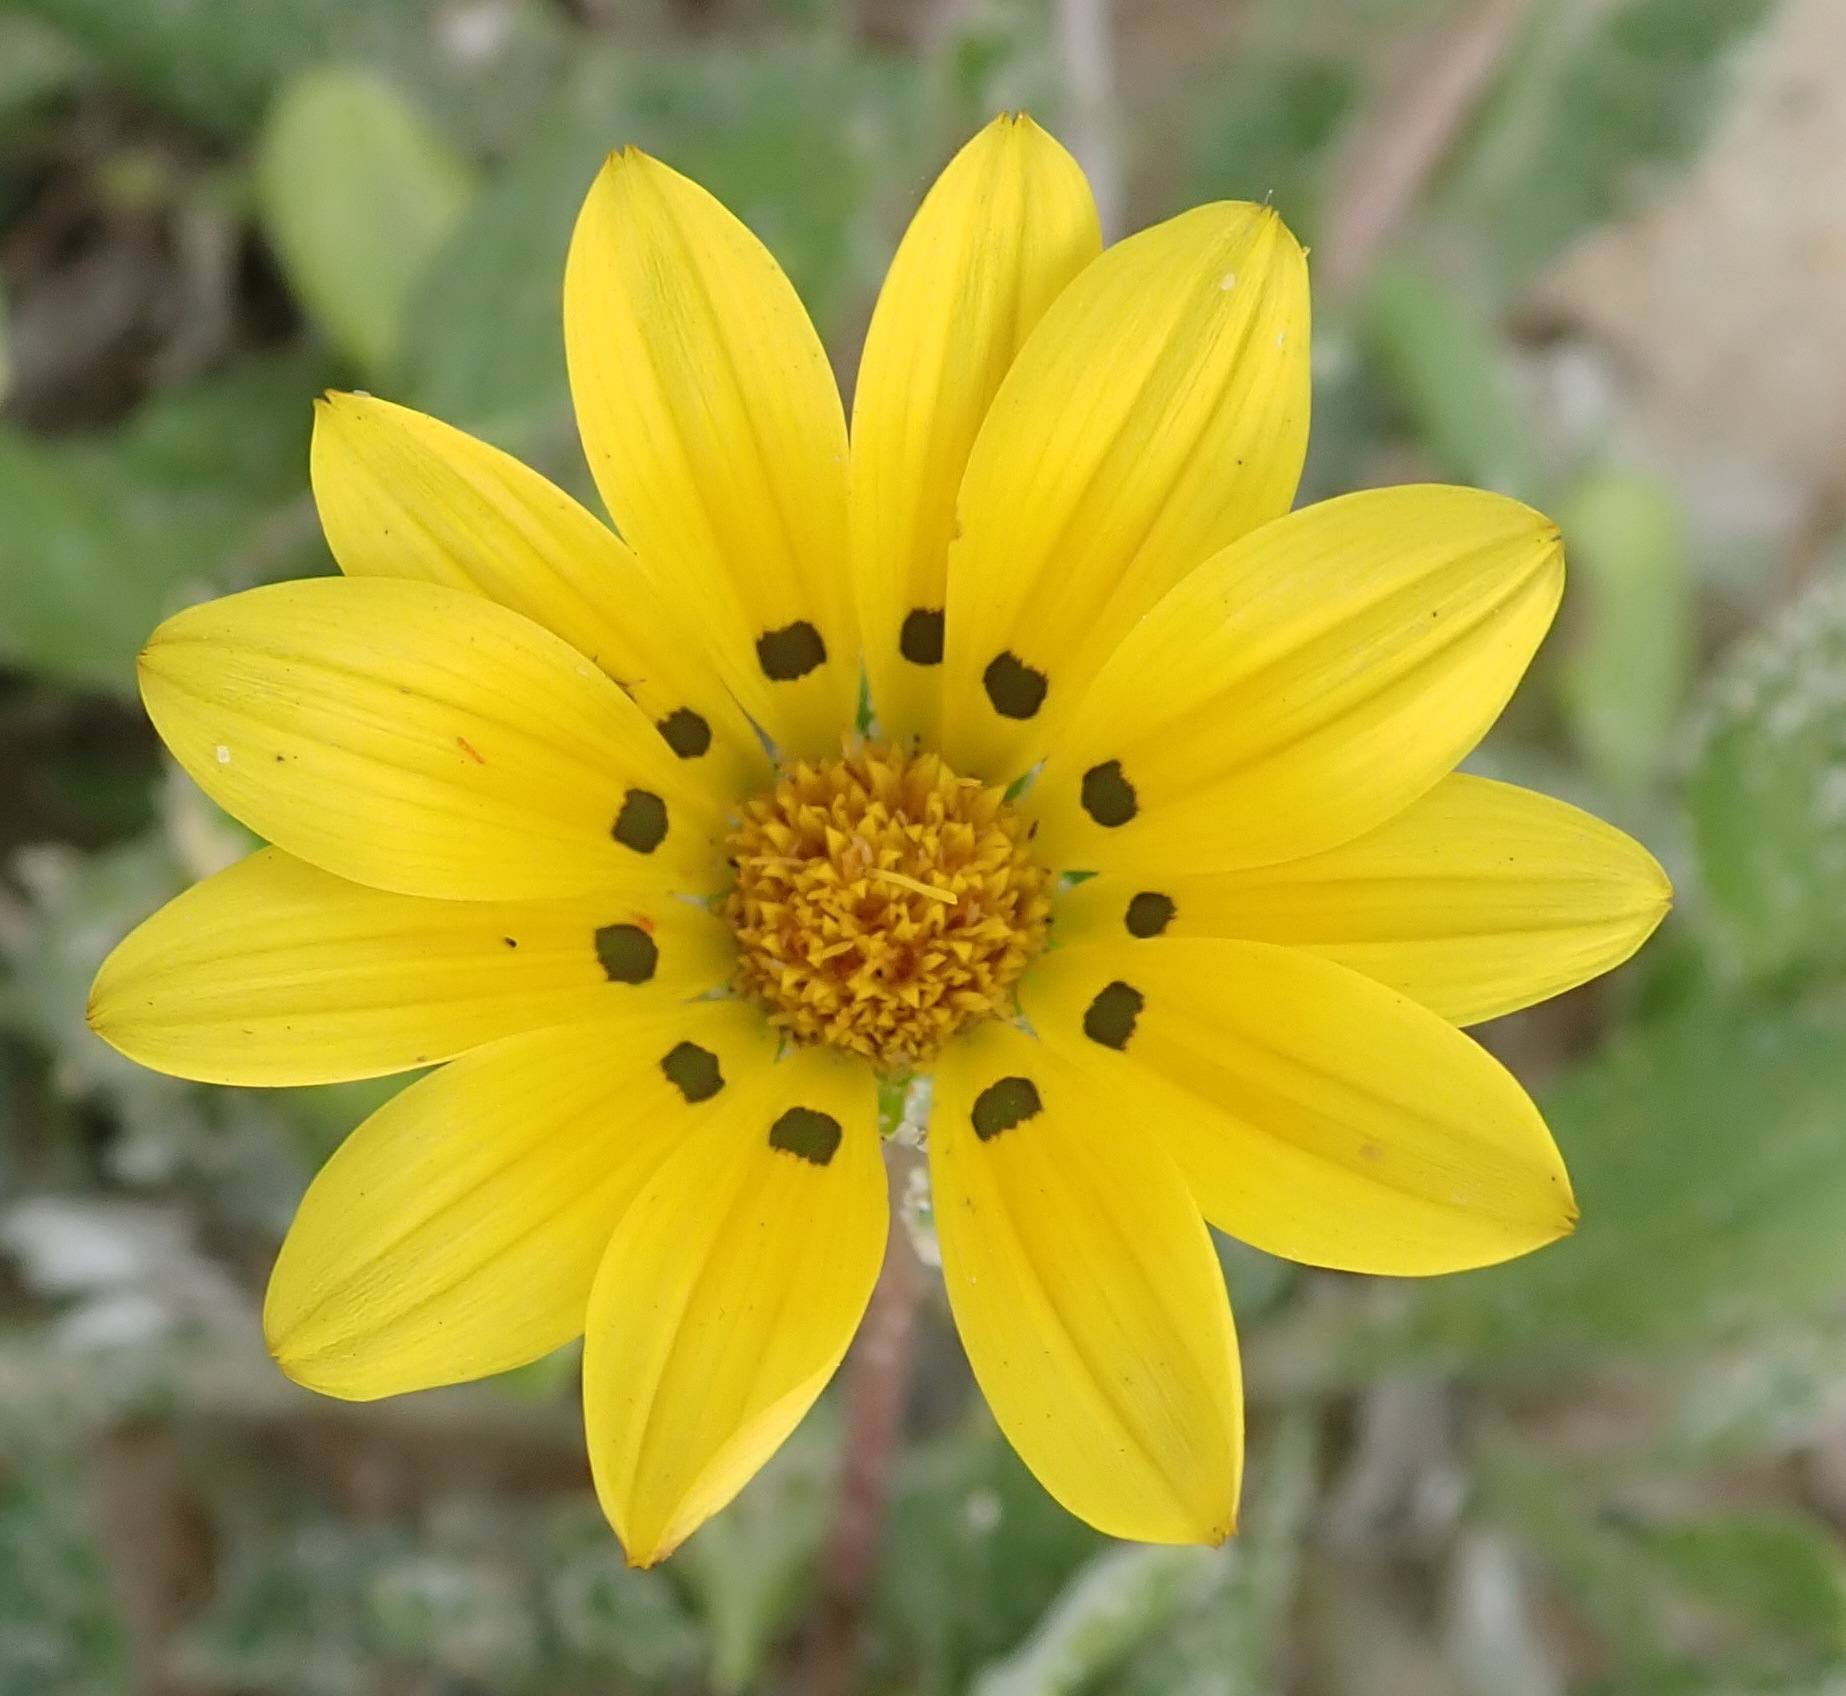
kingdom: Plantae
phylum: Tracheophyta
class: Magnoliopsida
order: Asterales
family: Asteraceae
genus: Gazania
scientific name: Gazania rigens
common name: Treasureflower
